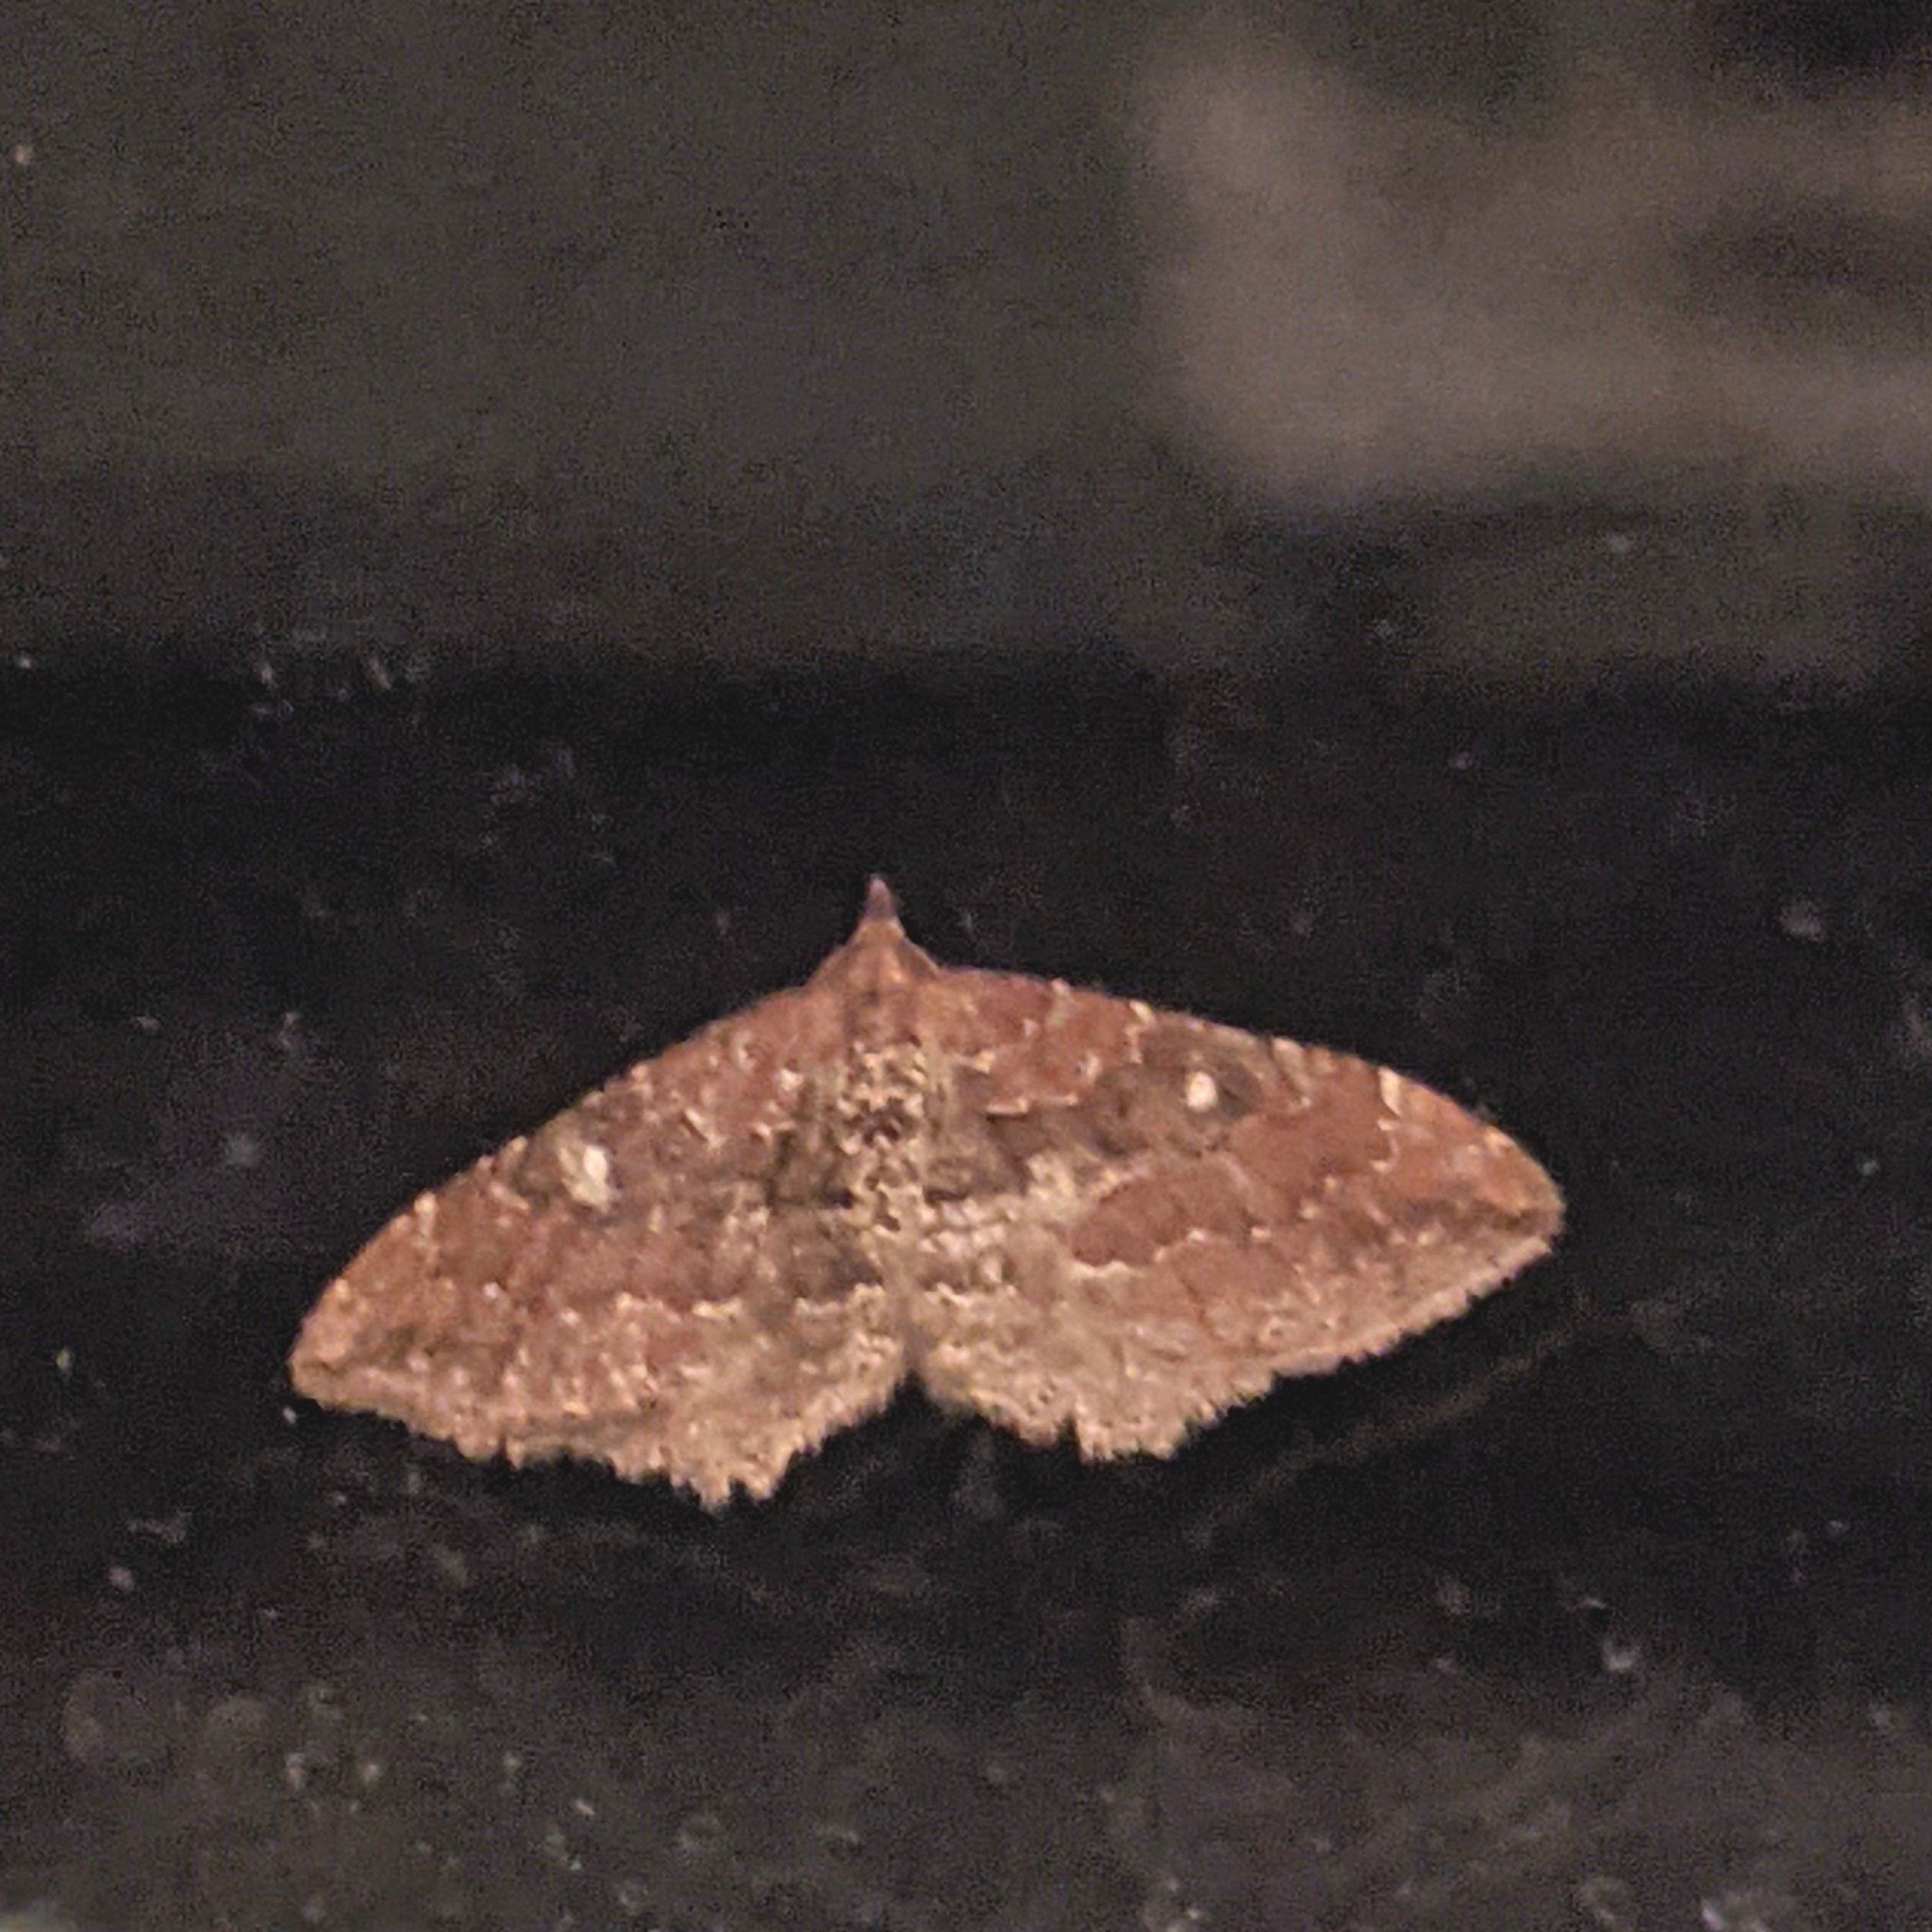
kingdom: Animalia
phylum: Arthropoda
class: Insecta
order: Lepidoptera
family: Geometridae
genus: Orthonama
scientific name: Orthonama obstipata
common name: The gem
